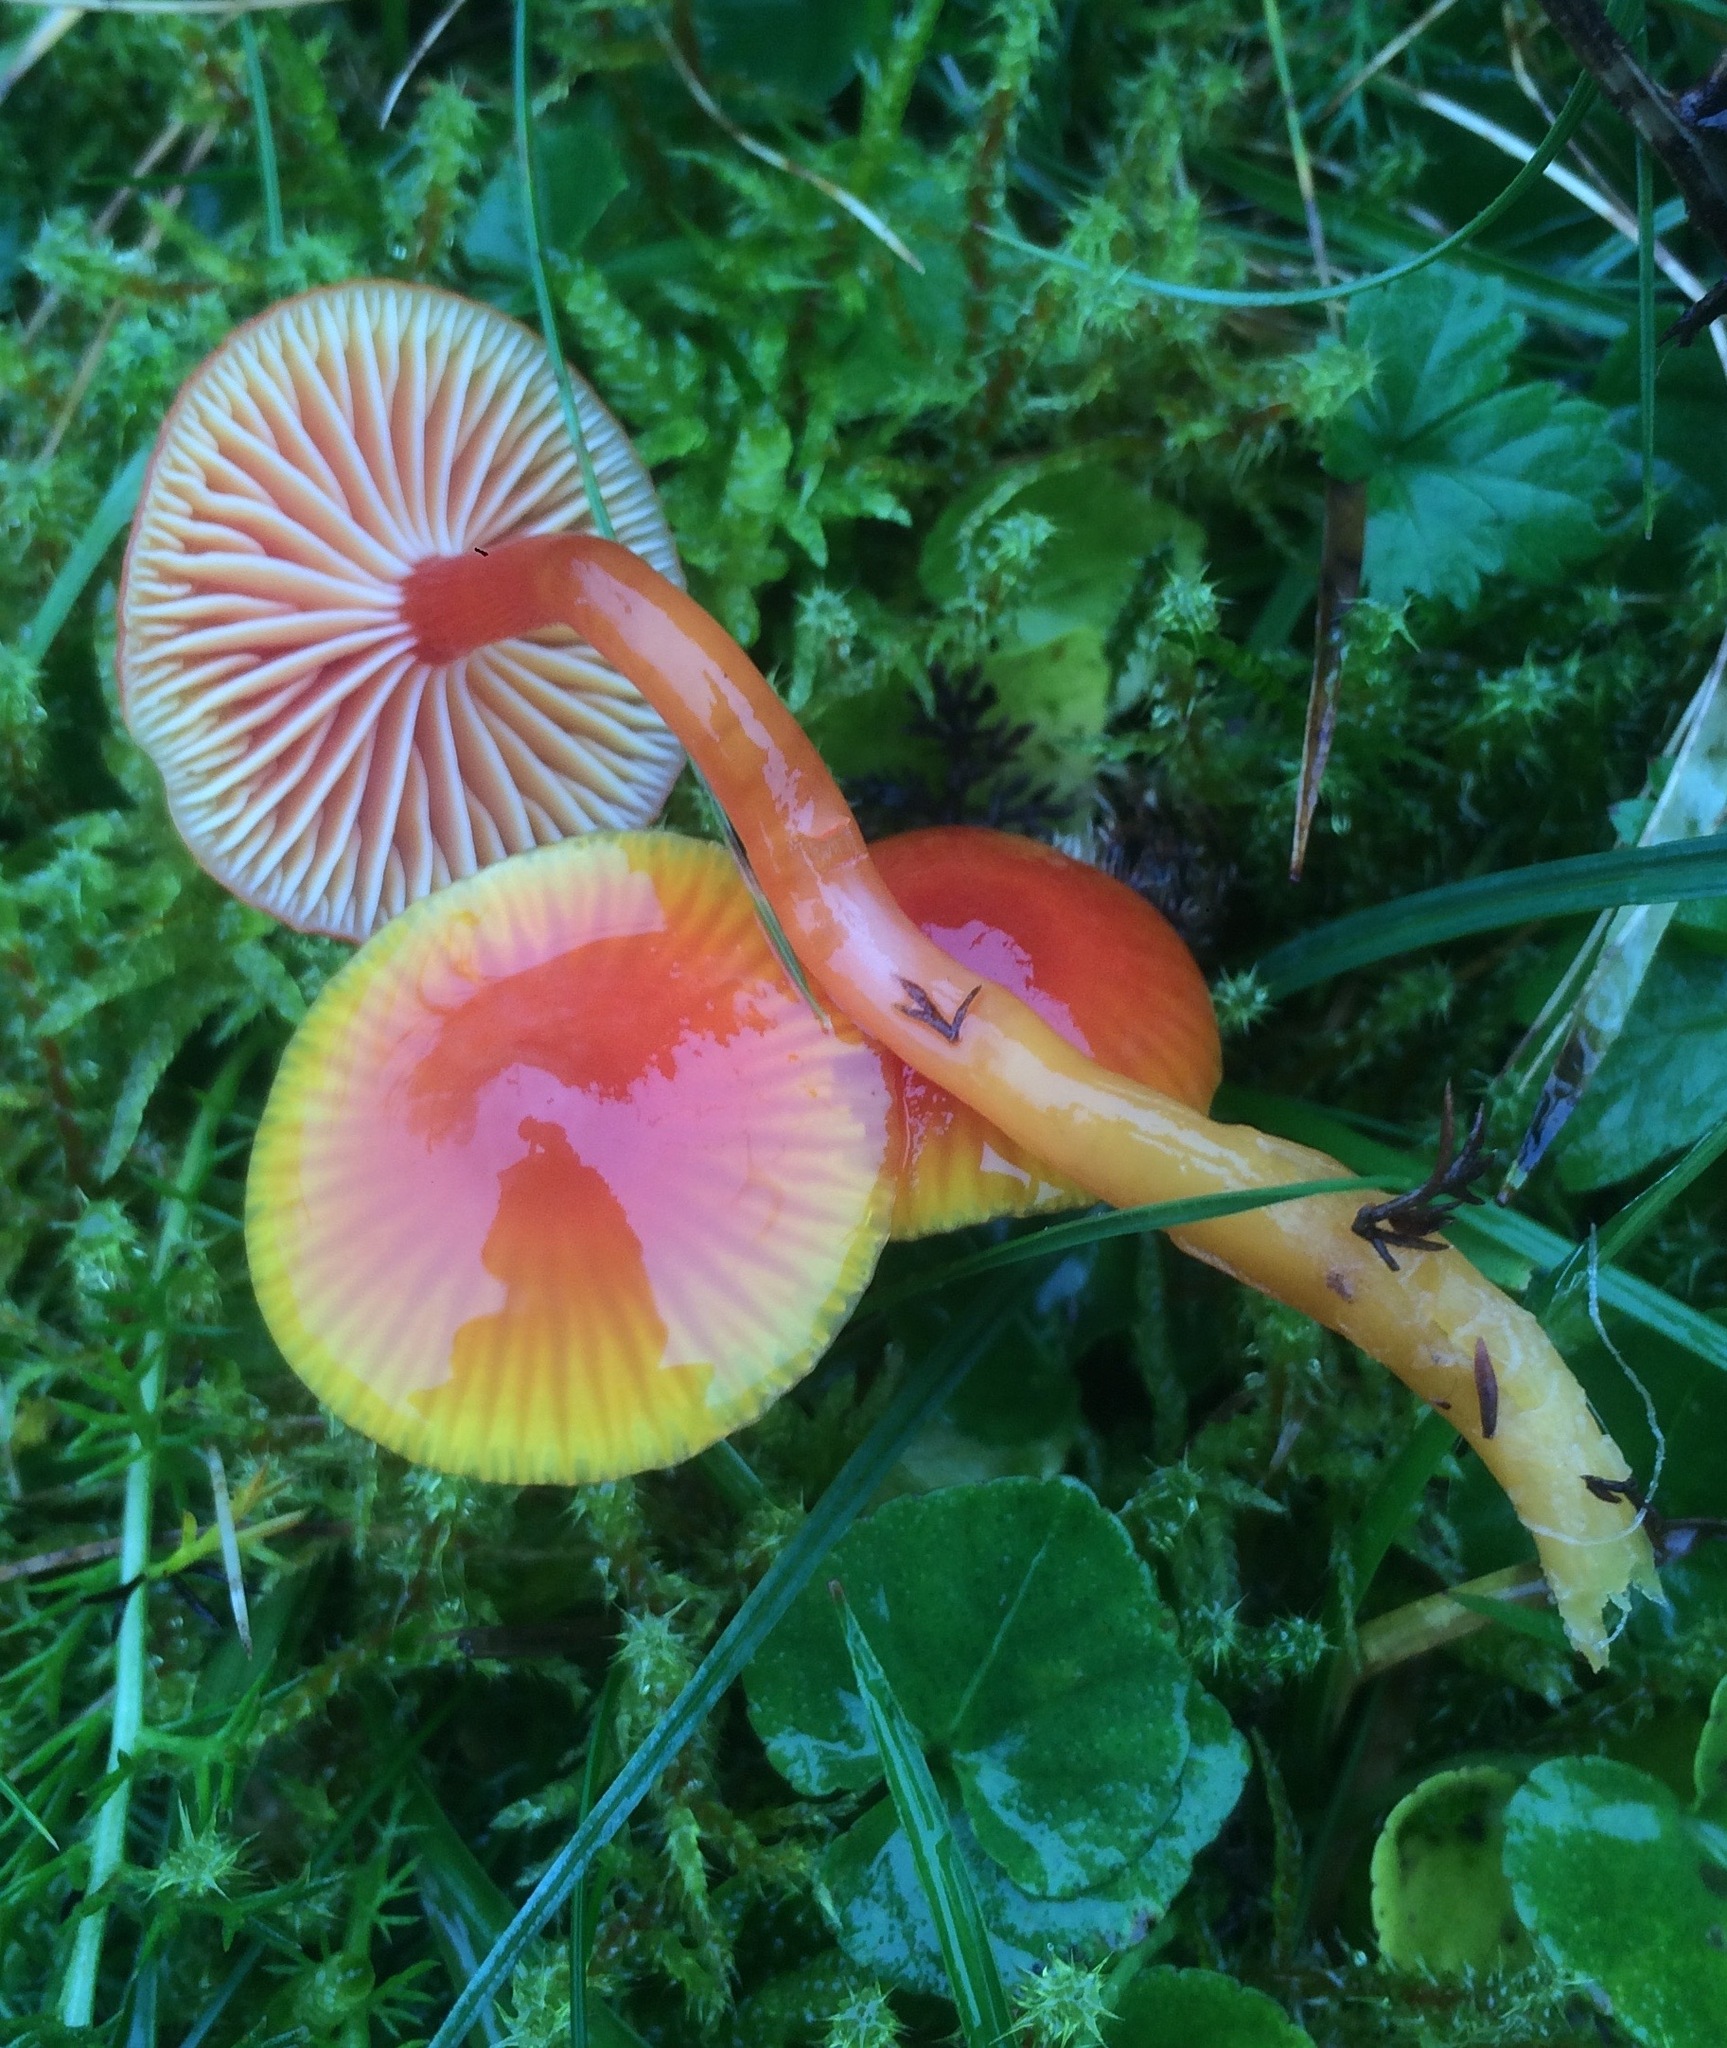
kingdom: Fungi
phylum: Basidiomycota
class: Agaricomycetes
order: Agaricales
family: Hygrophoraceae
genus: Hygrocybe
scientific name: Hygrocybe mucronella
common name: Bitter waxcap
